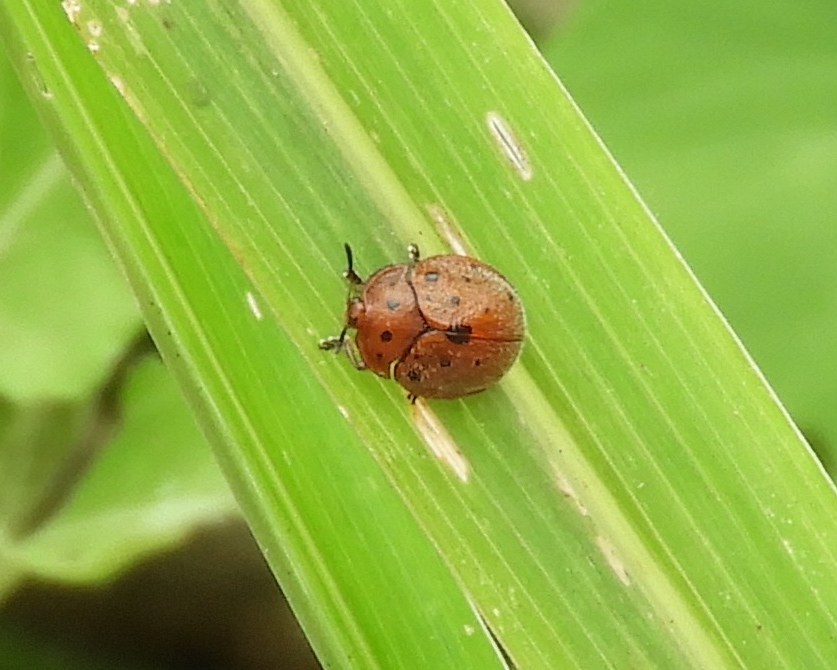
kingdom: Animalia
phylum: Arthropoda
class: Insecta
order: Coleoptera
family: Chrysomelidae
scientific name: Chrysomelidae
